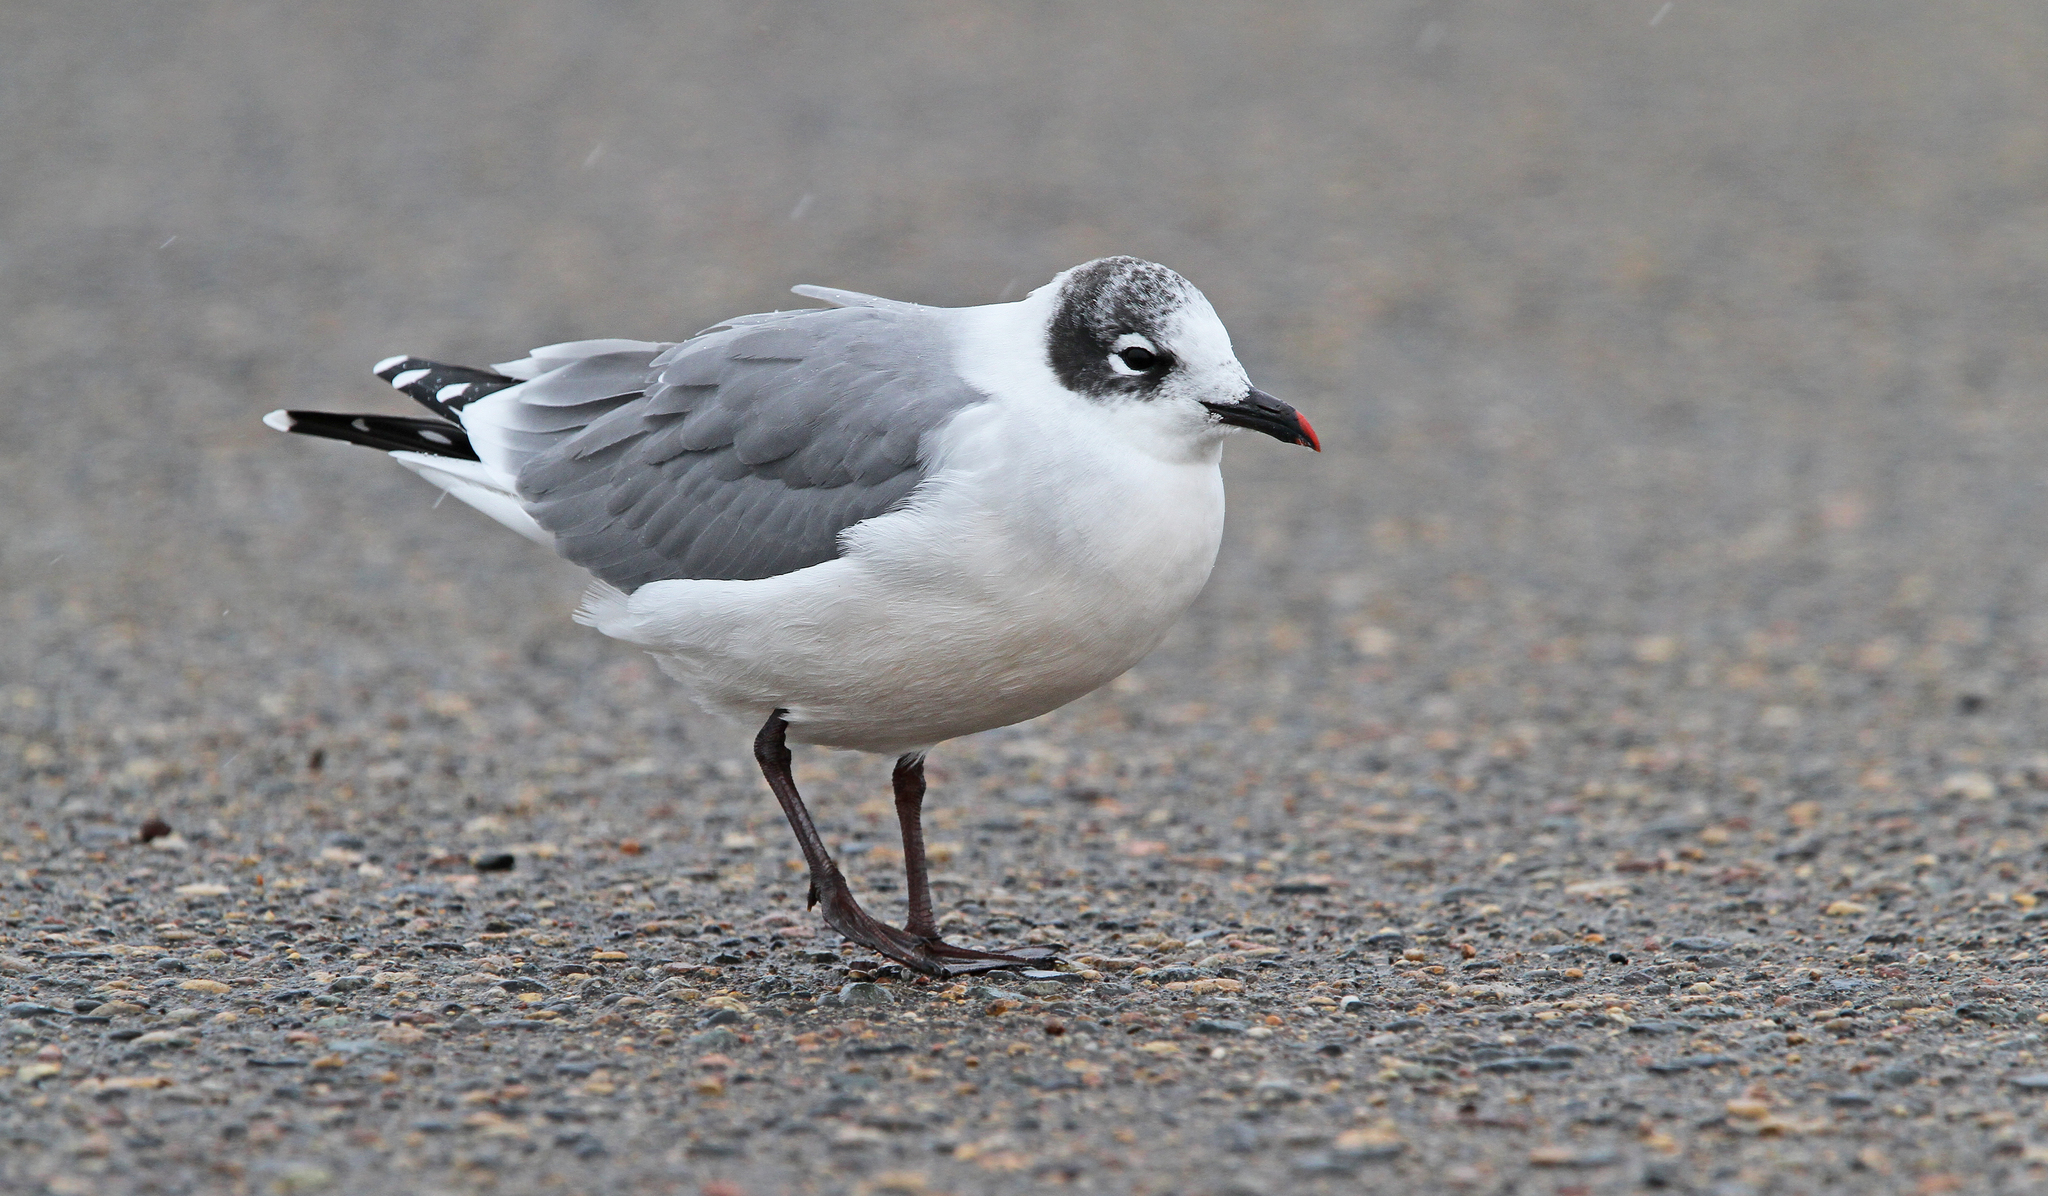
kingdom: Animalia
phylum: Chordata
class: Aves
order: Charadriiformes
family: Laridae
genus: Leucophaeus
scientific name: Leucophaeus pipixcan
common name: Franklin's gull
